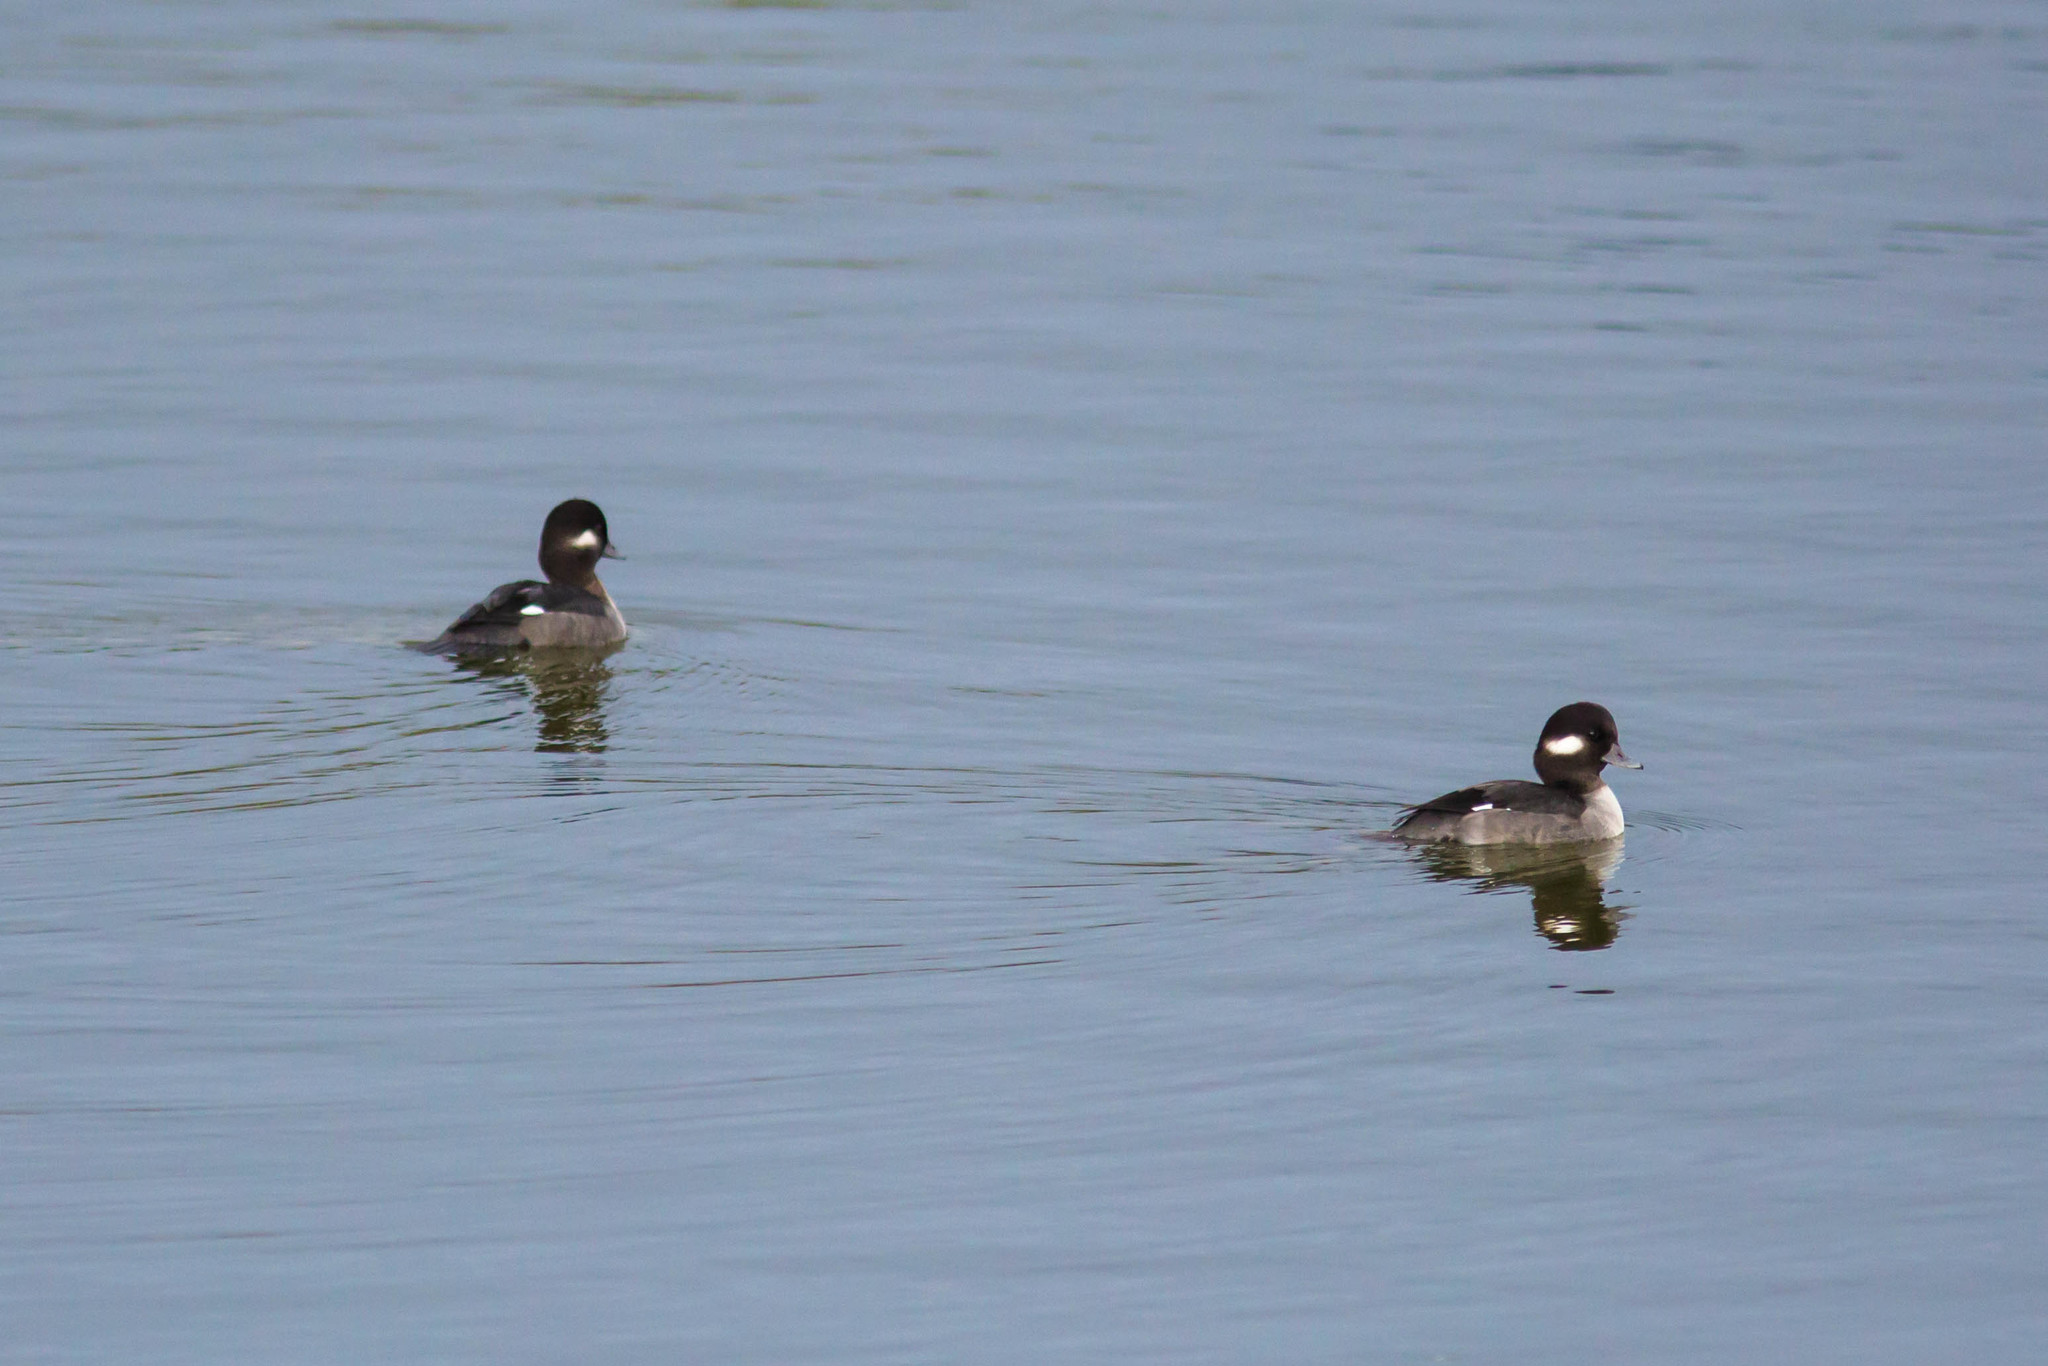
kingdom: Animalia
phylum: Chordata
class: Aves
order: Anseriformes
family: Anatidae
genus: Bucephala
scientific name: Bucephala albeola
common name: Bufflehead
